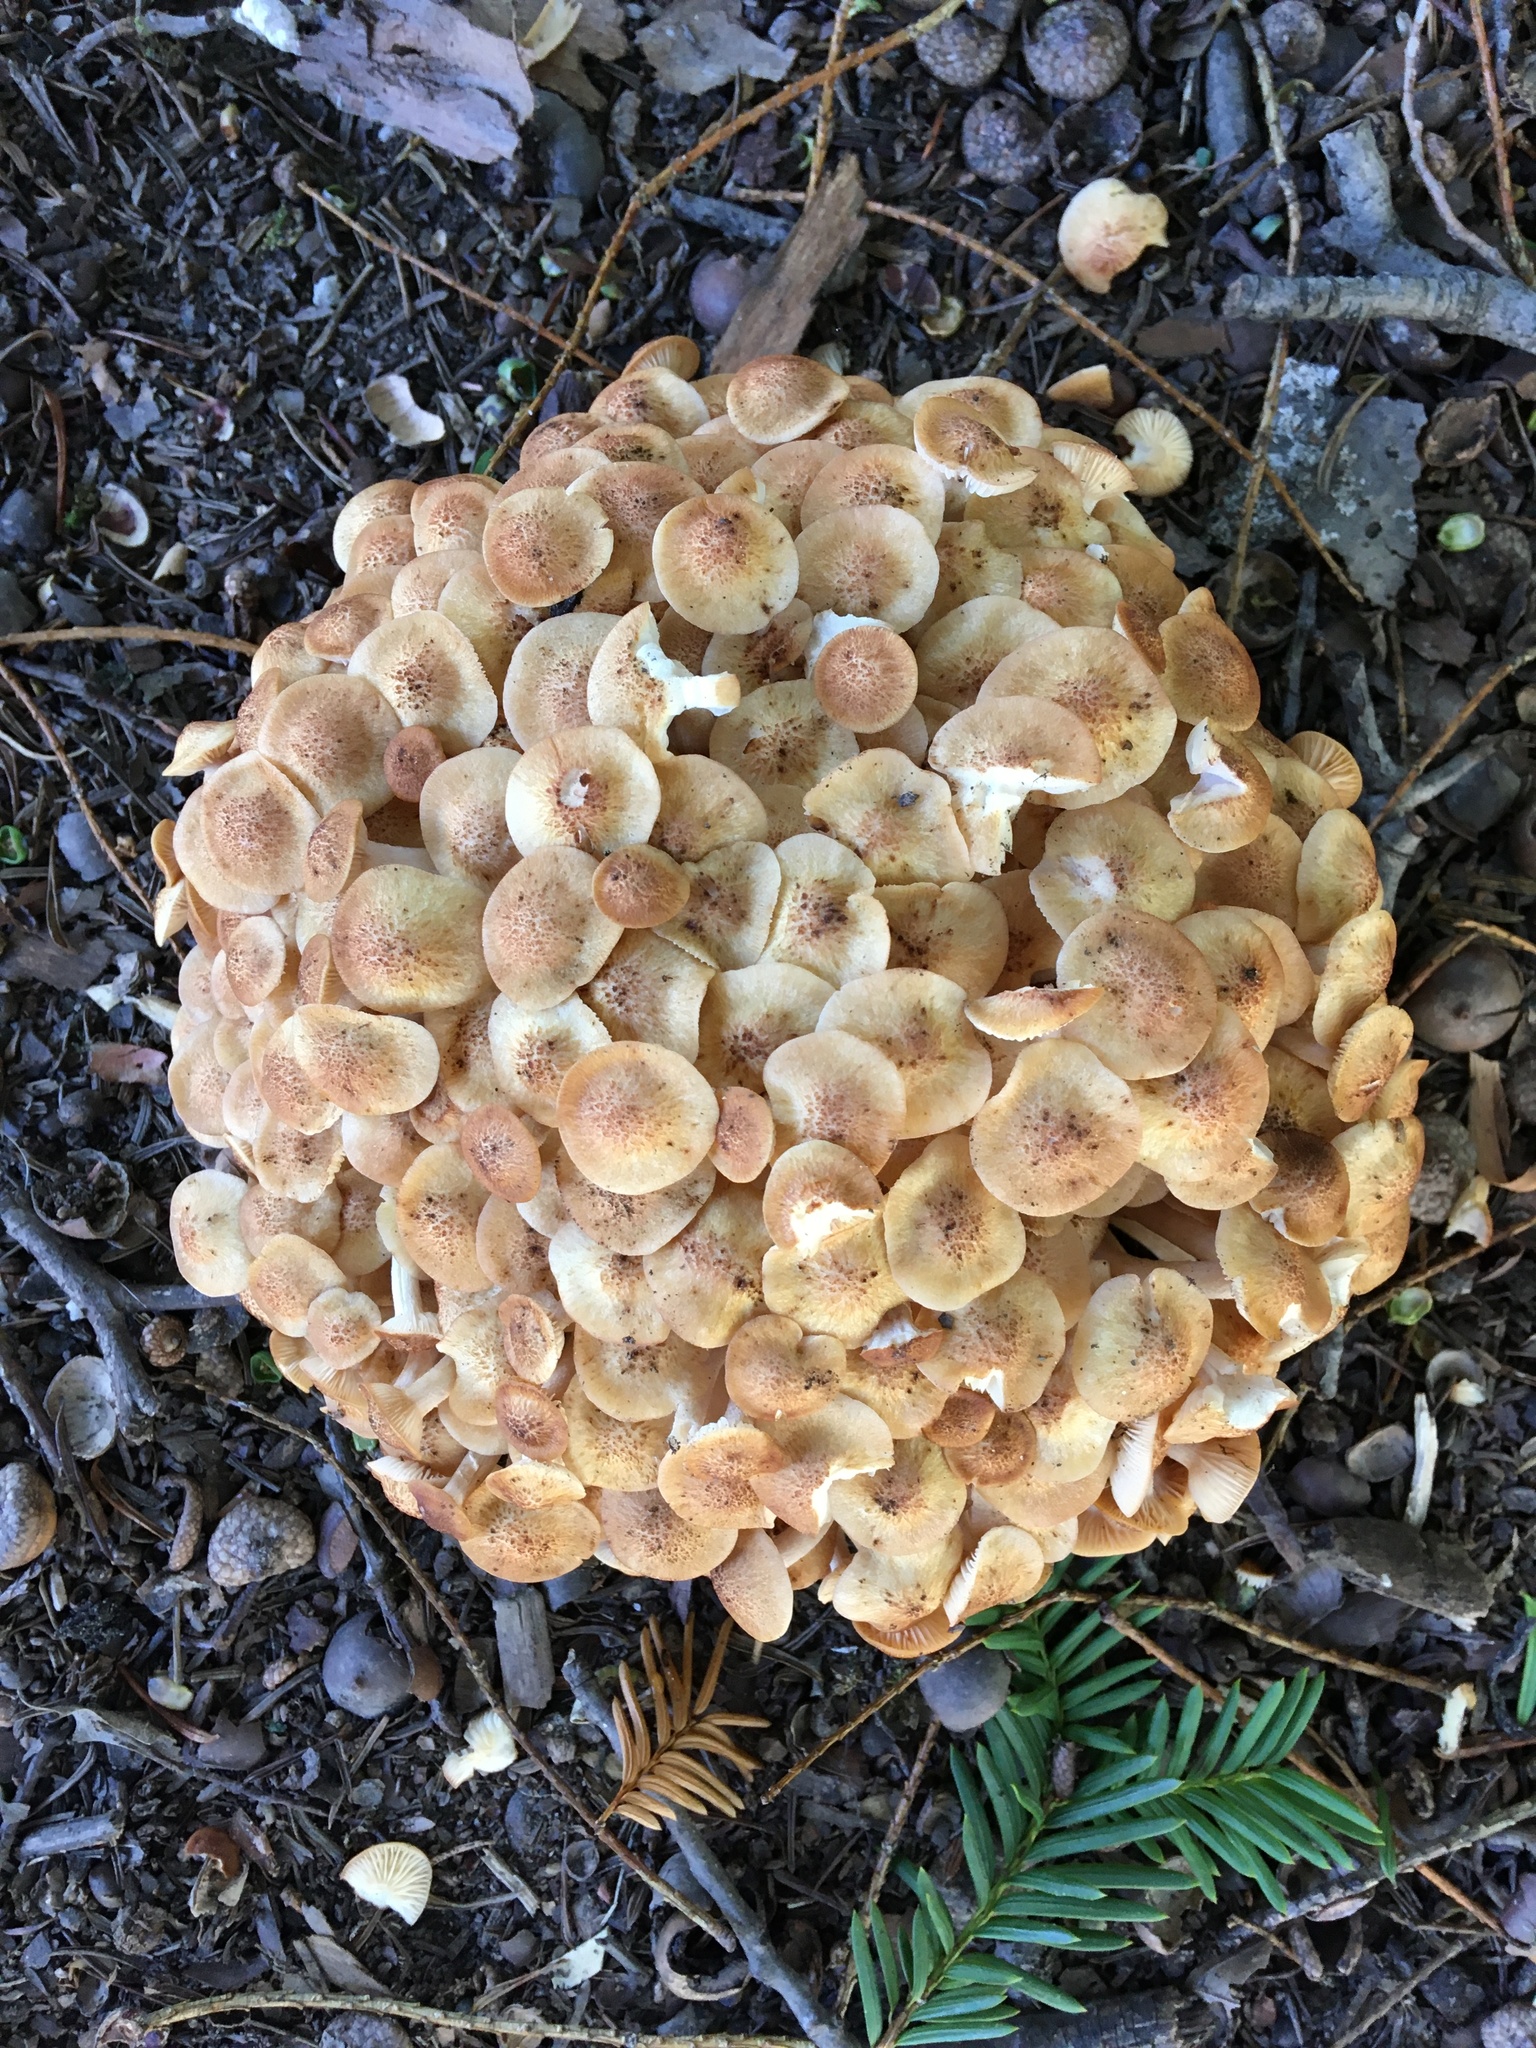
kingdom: Fungi
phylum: Basidiomycota
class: Agaricomycetes
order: Agaricales
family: Physalacriaceae
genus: Desarmillaria
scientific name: Desarmillaria caespitosa
